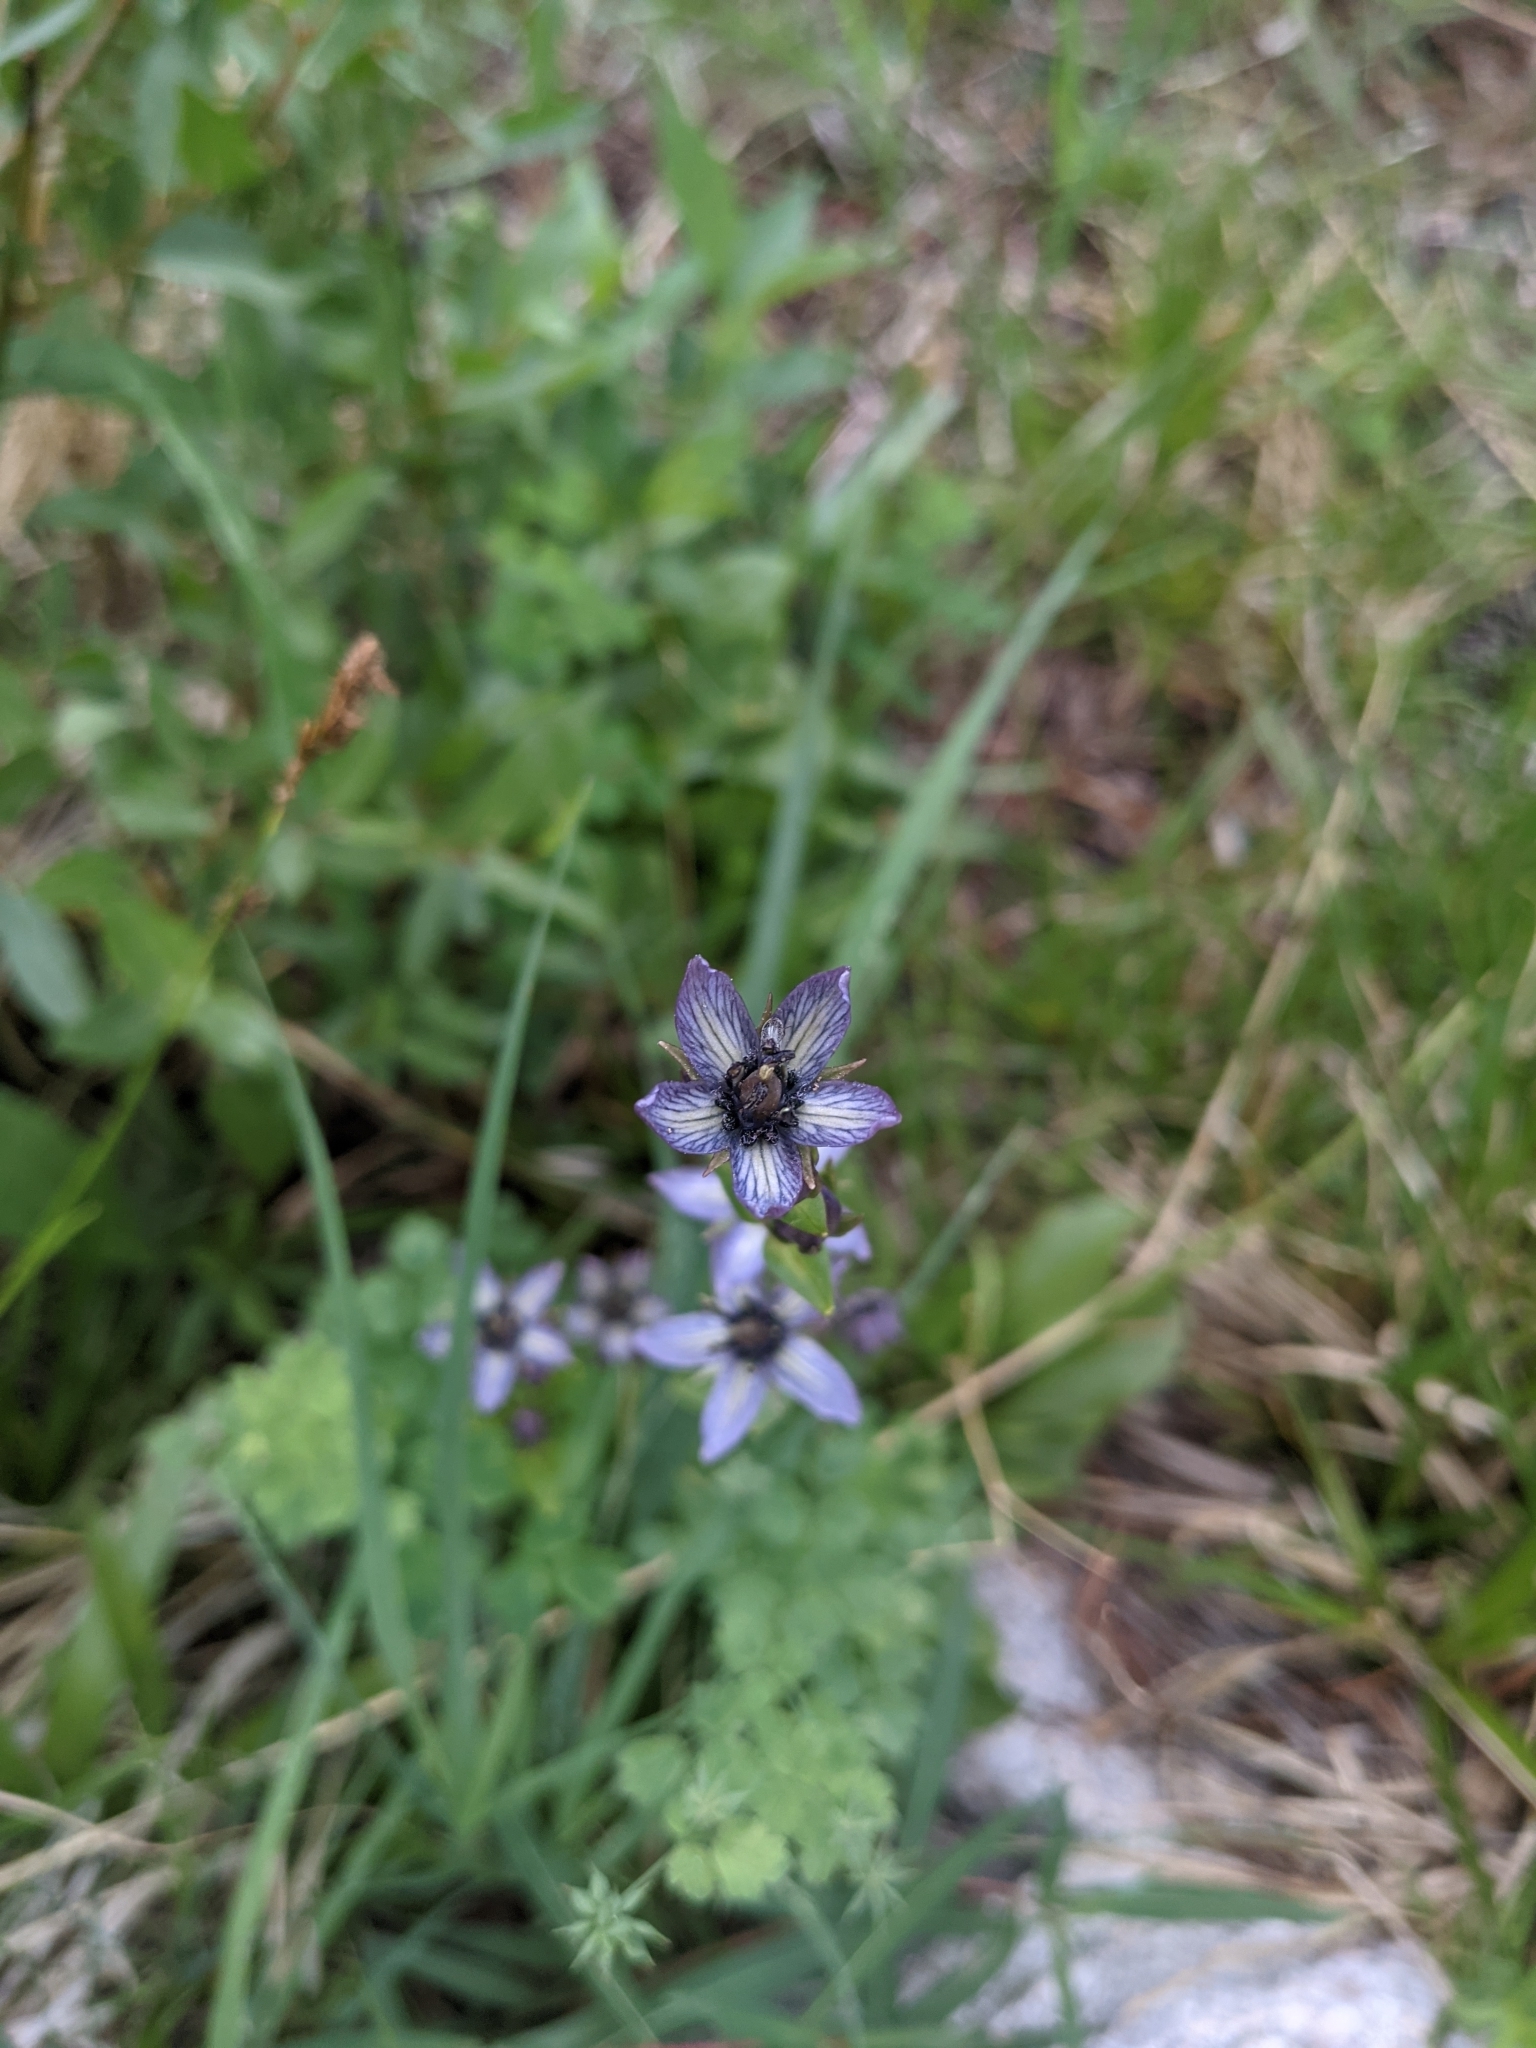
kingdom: Plantae
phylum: Tracheophyta
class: Magnoliopsida
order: Gentianales
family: Gentianaceae
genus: Swertia
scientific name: Swertia perennis
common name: Alpine bog swertia
